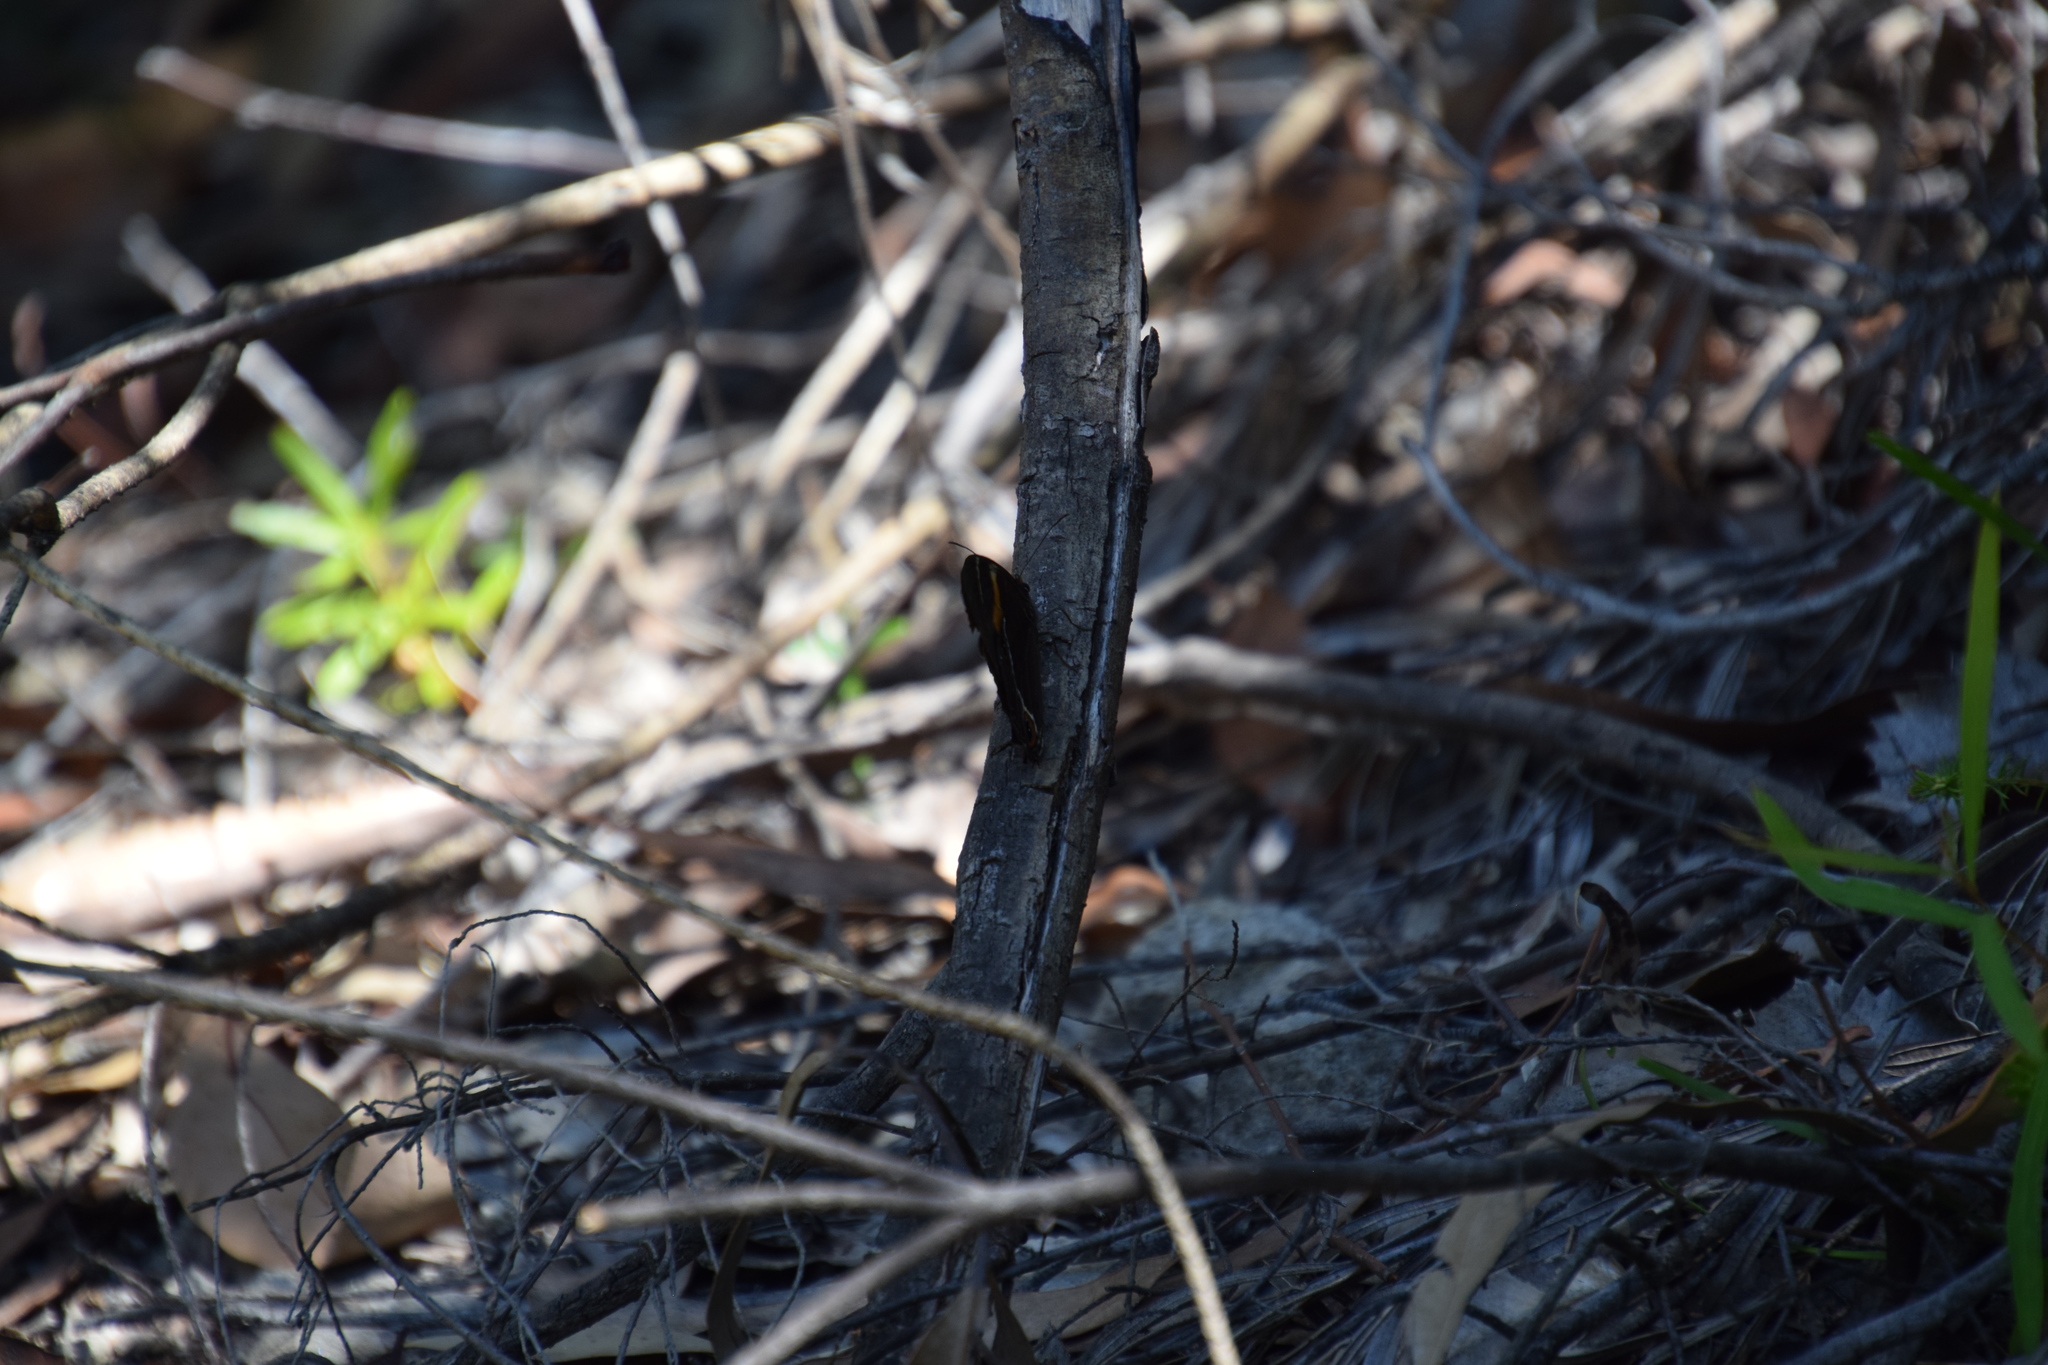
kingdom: Animalia
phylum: Arthropoda
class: Insecta
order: Lepidoptera
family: Nymphalidae
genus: Tisiphone
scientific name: Tisiphone abeona
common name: Swordgrass brown
